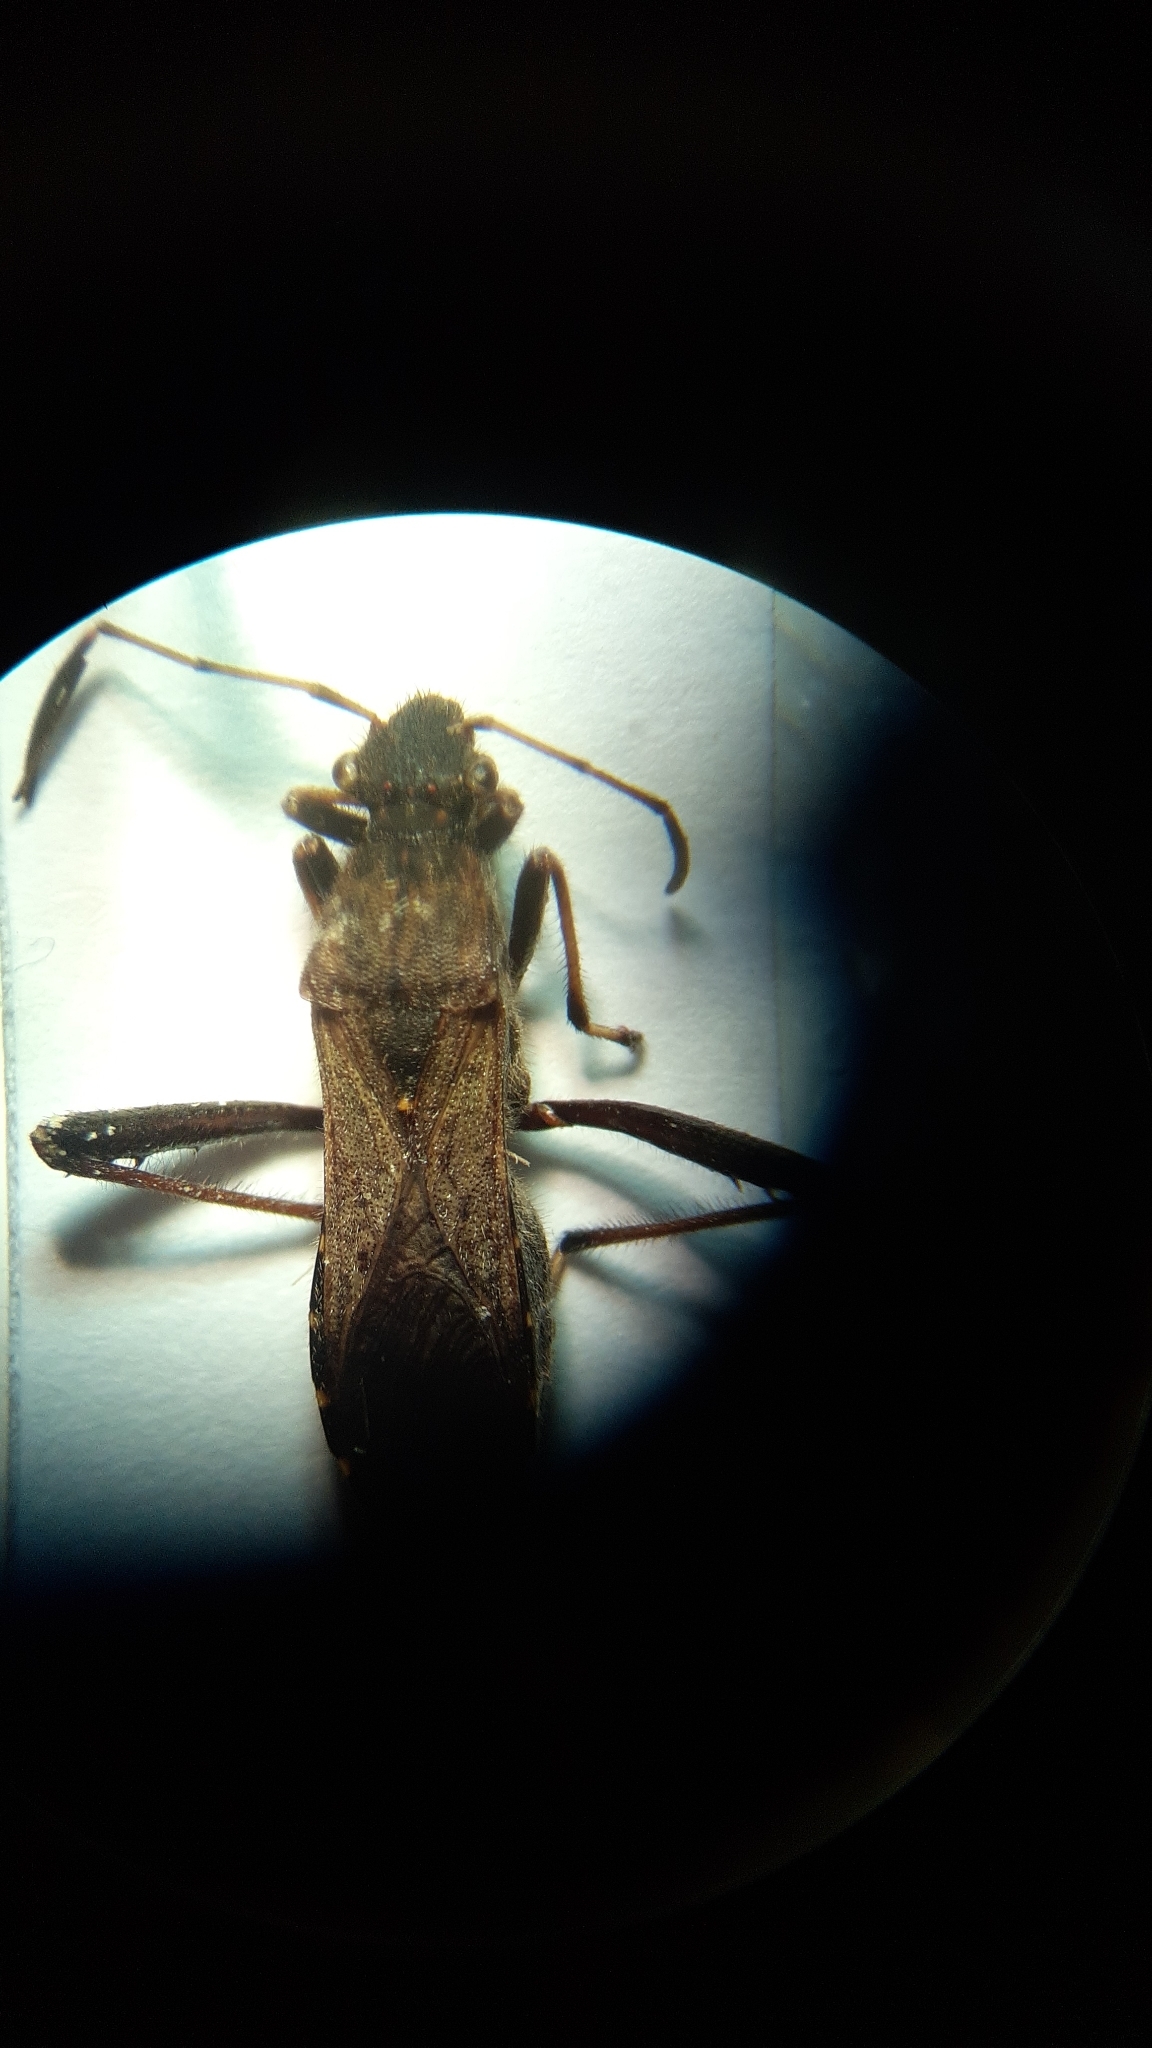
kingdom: Animalia
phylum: Arthropoda
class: Insecta
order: Hemiptera
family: Alydidae
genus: Alydus
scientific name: Alydus calcaratus
